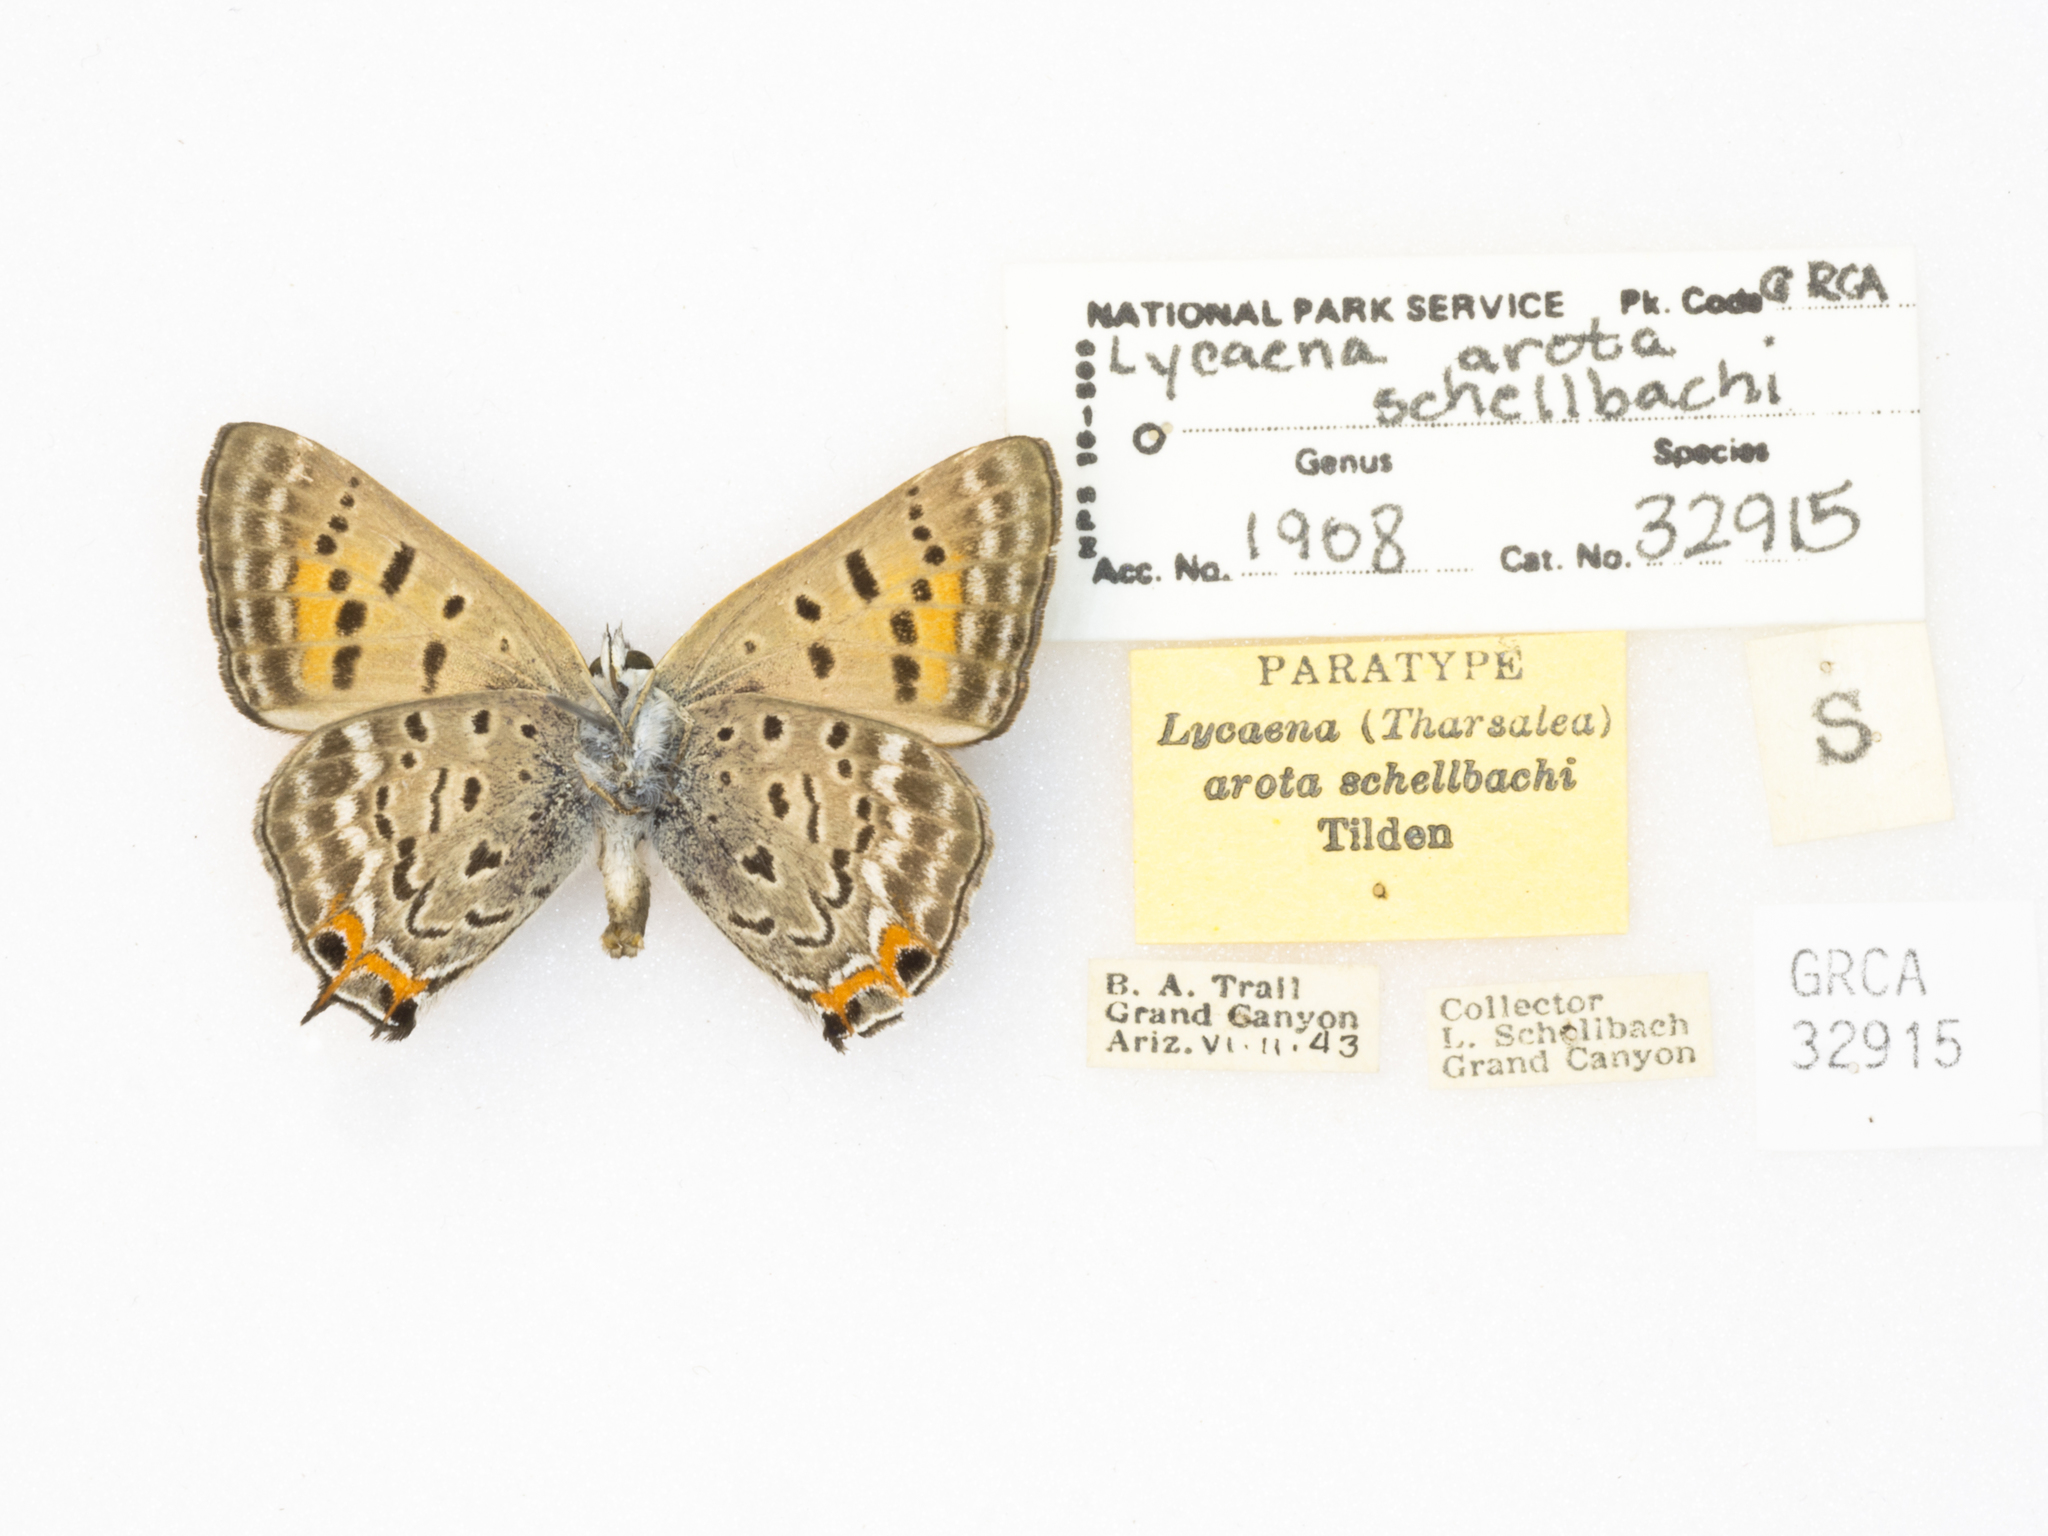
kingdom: Animalia
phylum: Arthropoda
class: Insecta
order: Lepidoptera
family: Lycaenidae
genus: Tharsalea
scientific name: Tharsalea arota
